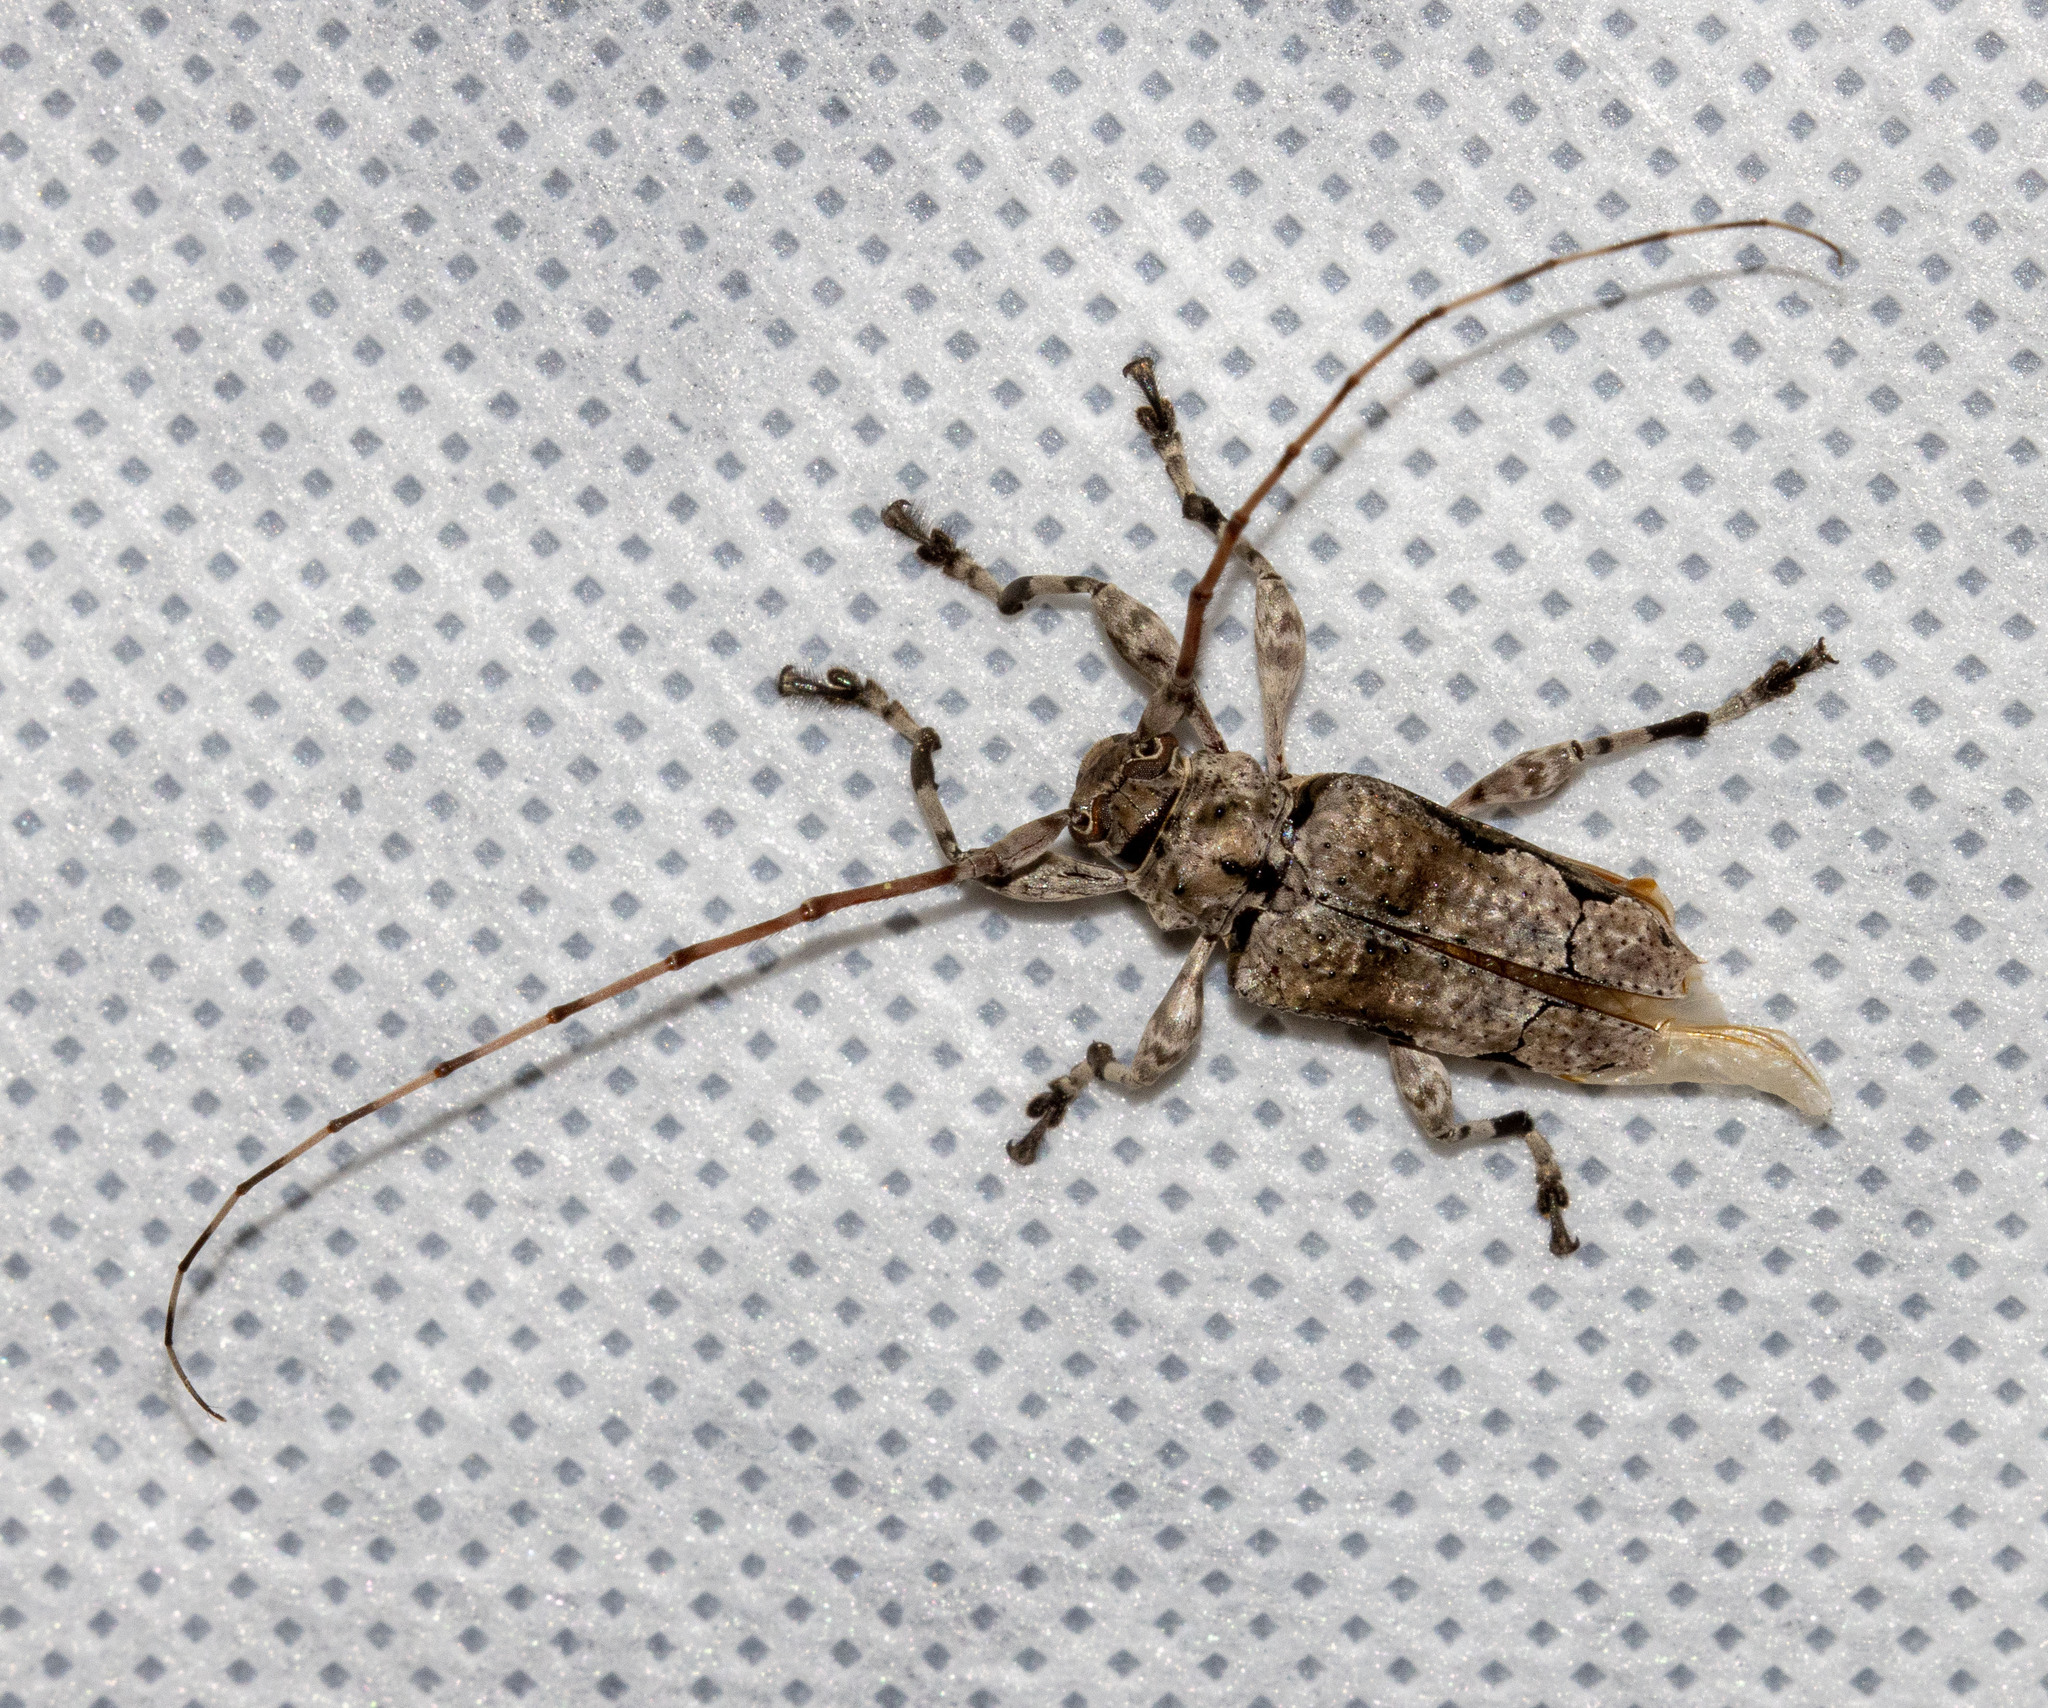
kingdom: Animalia
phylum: Arthropoda
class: Insecta
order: Coleoptera
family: Cerambycidae
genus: Oreodera
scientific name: Oreodera glauca
